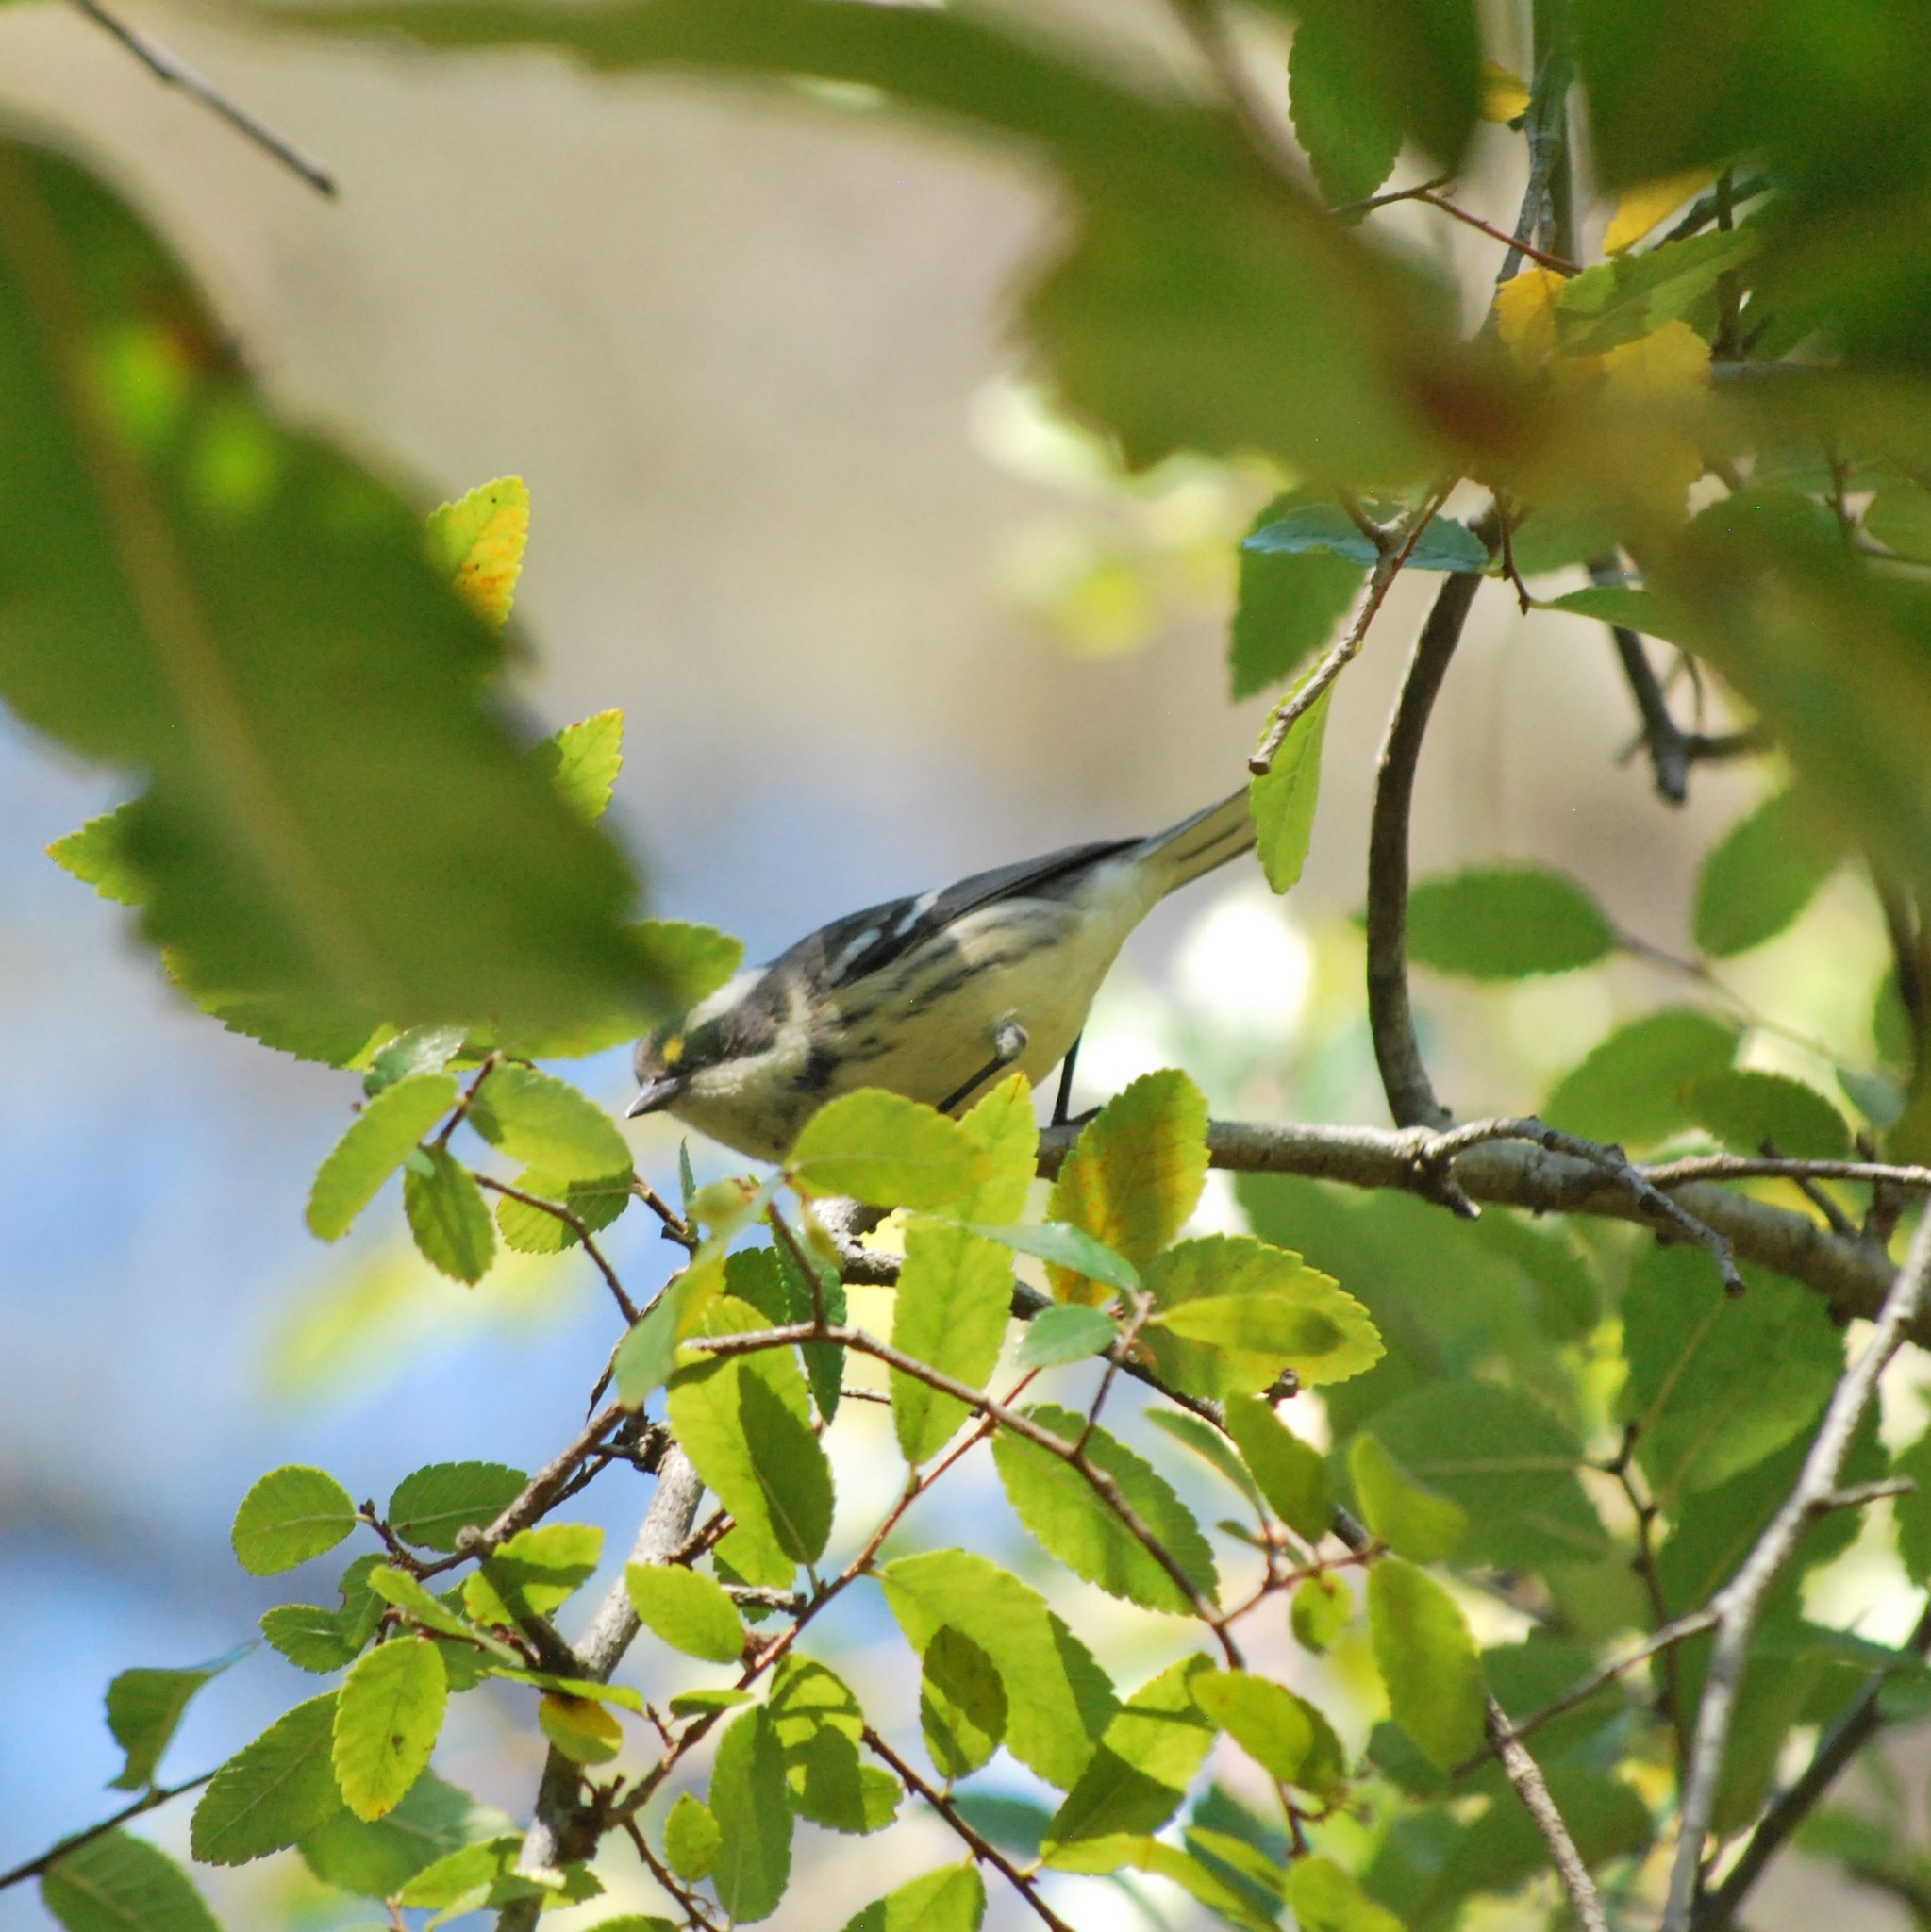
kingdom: Animalia
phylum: Chordata
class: Aves
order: Passeriformes
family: Parulidae
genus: Setophaga
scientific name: Setophaga nigrescens
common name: Black-throated gray warbler
